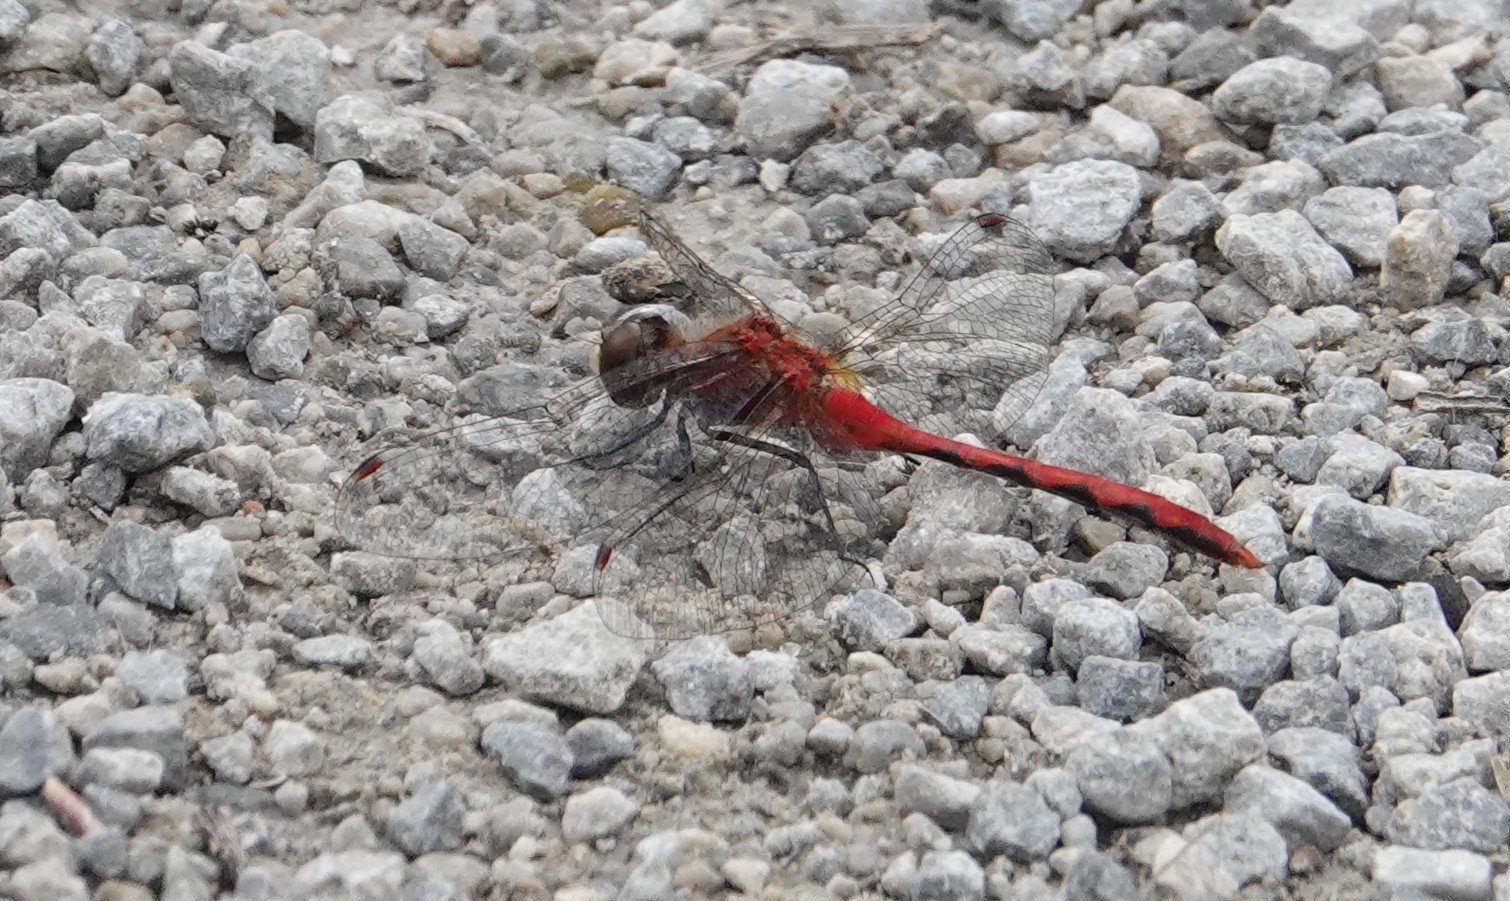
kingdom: Animalia
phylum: Arthropoda
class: Insecta
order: Odonata
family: Libellulidae
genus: Sympetrum
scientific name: Sympetrum obtrusum
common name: White-faced meadowhawk
